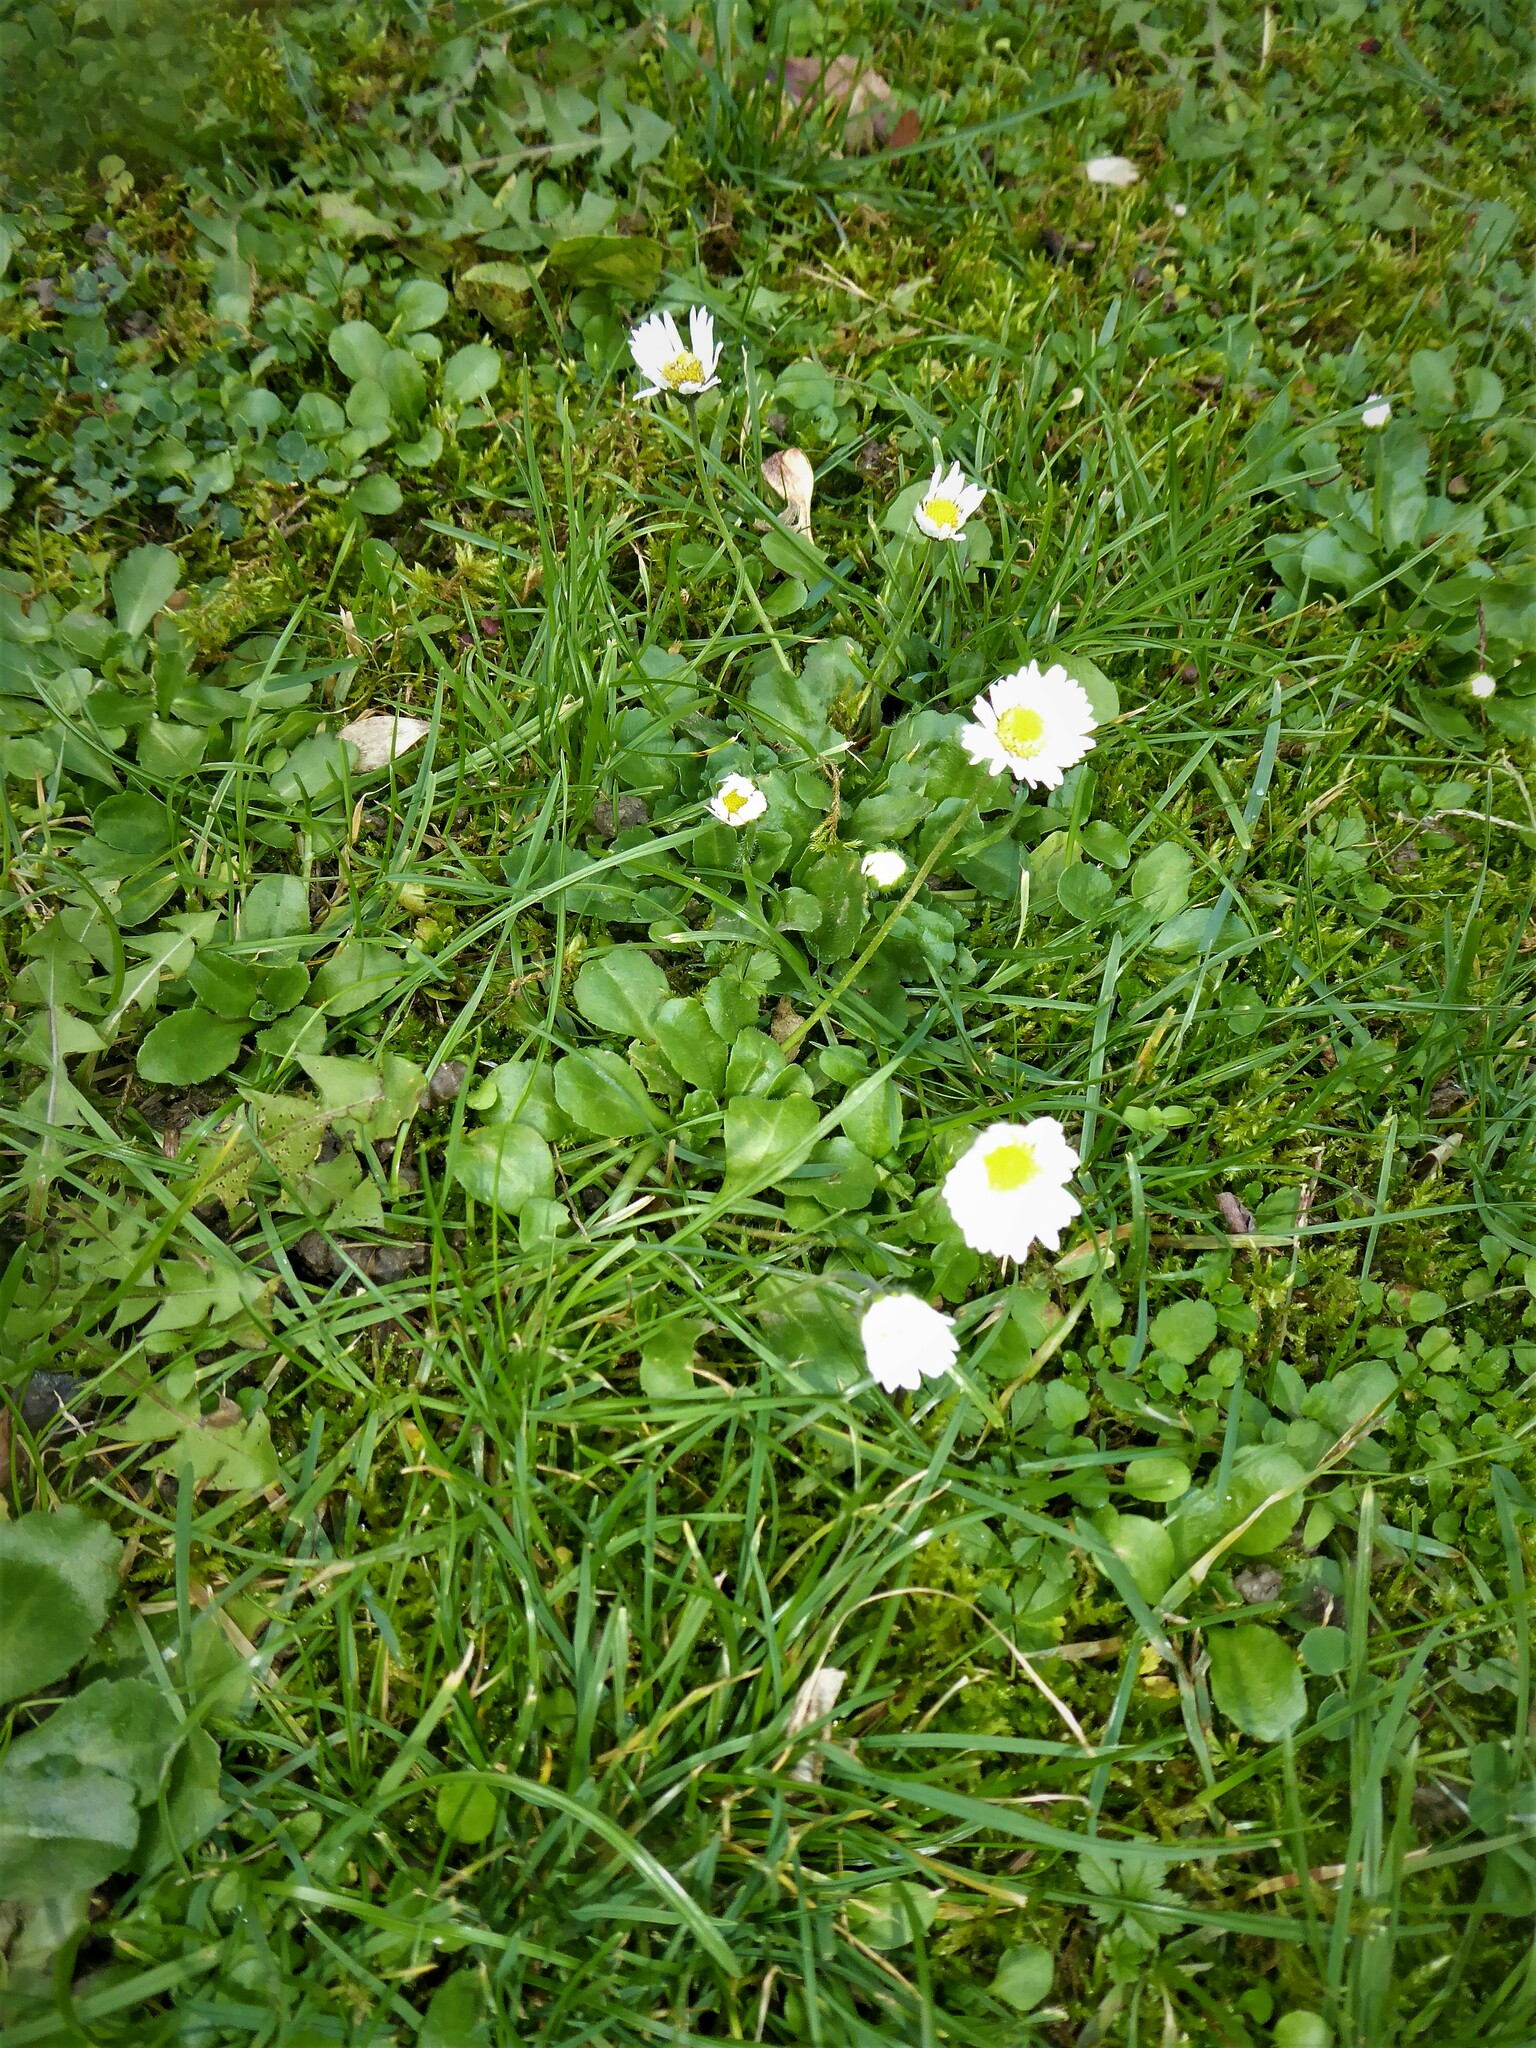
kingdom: Plantae
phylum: Tracheophyta
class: Magnoliopsida
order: Asterales
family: Asteraceae
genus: Bellis
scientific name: Bellis perennis
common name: Lawndaisy
